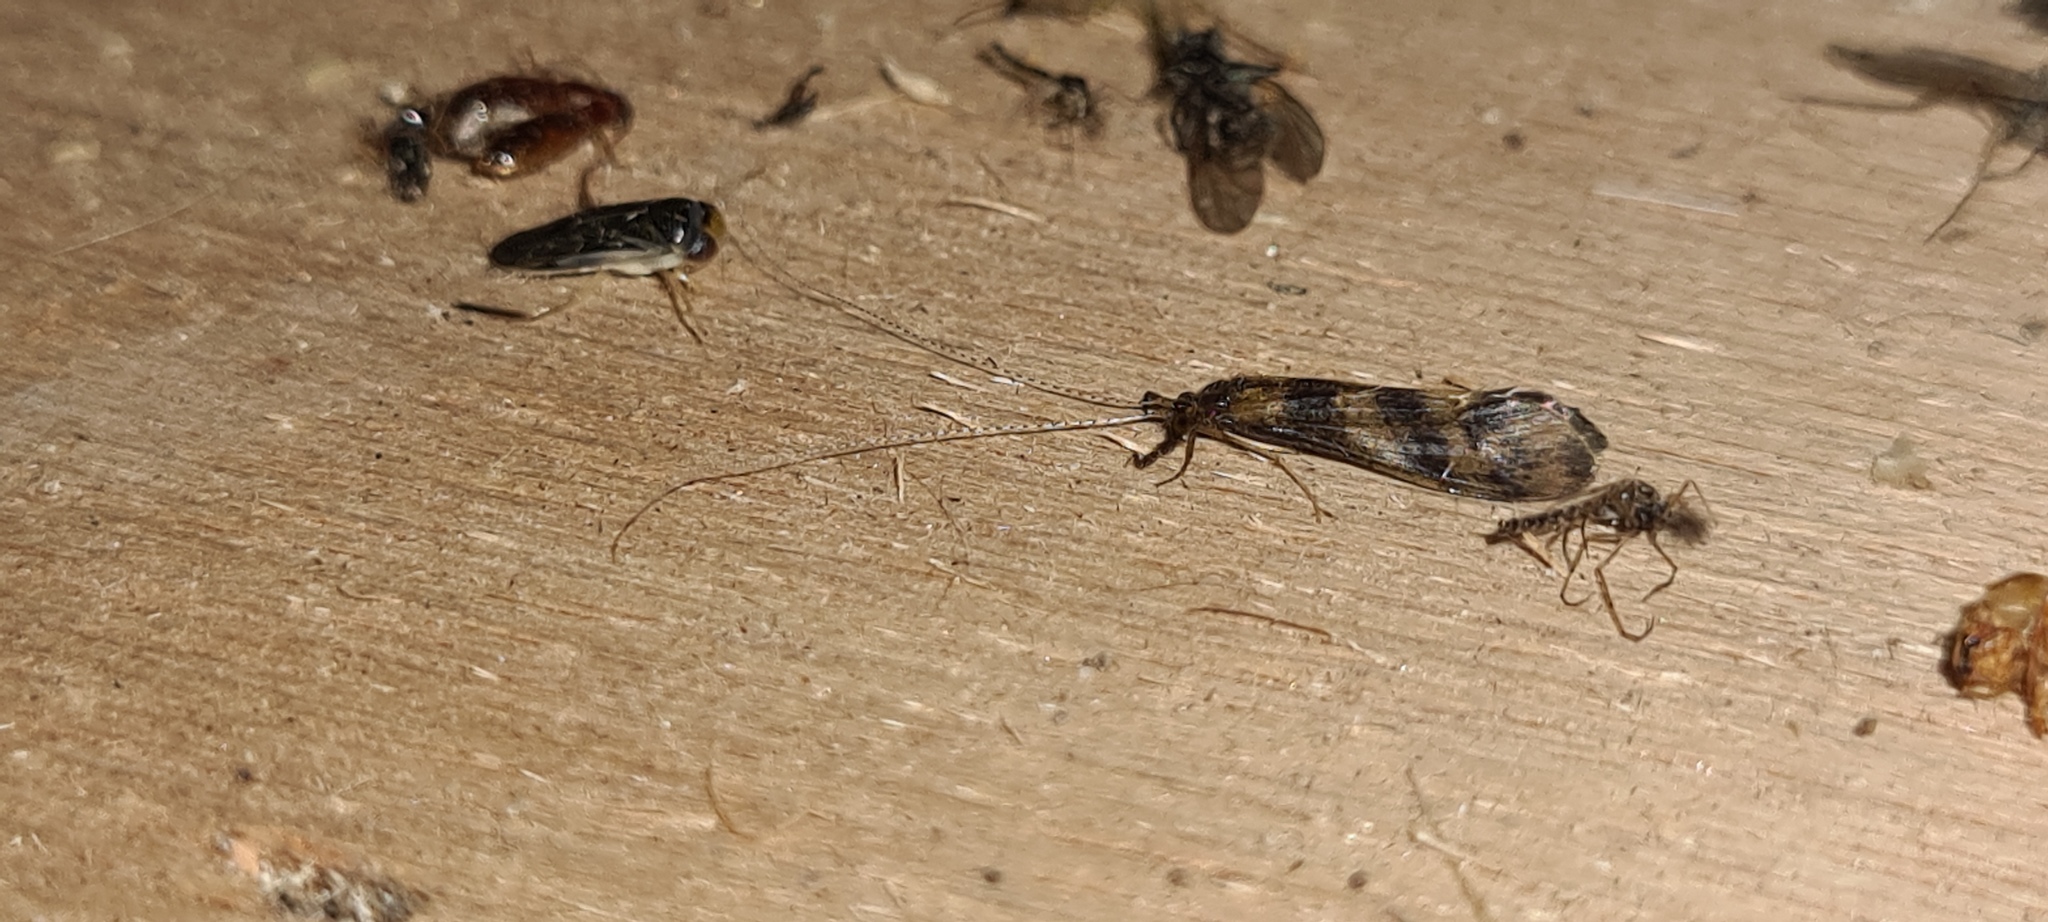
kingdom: Animalia
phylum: Arthropoda
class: Insecta
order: Trichoptera
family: Leptoceridae
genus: Mystacides
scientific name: Mystacides longicornis
